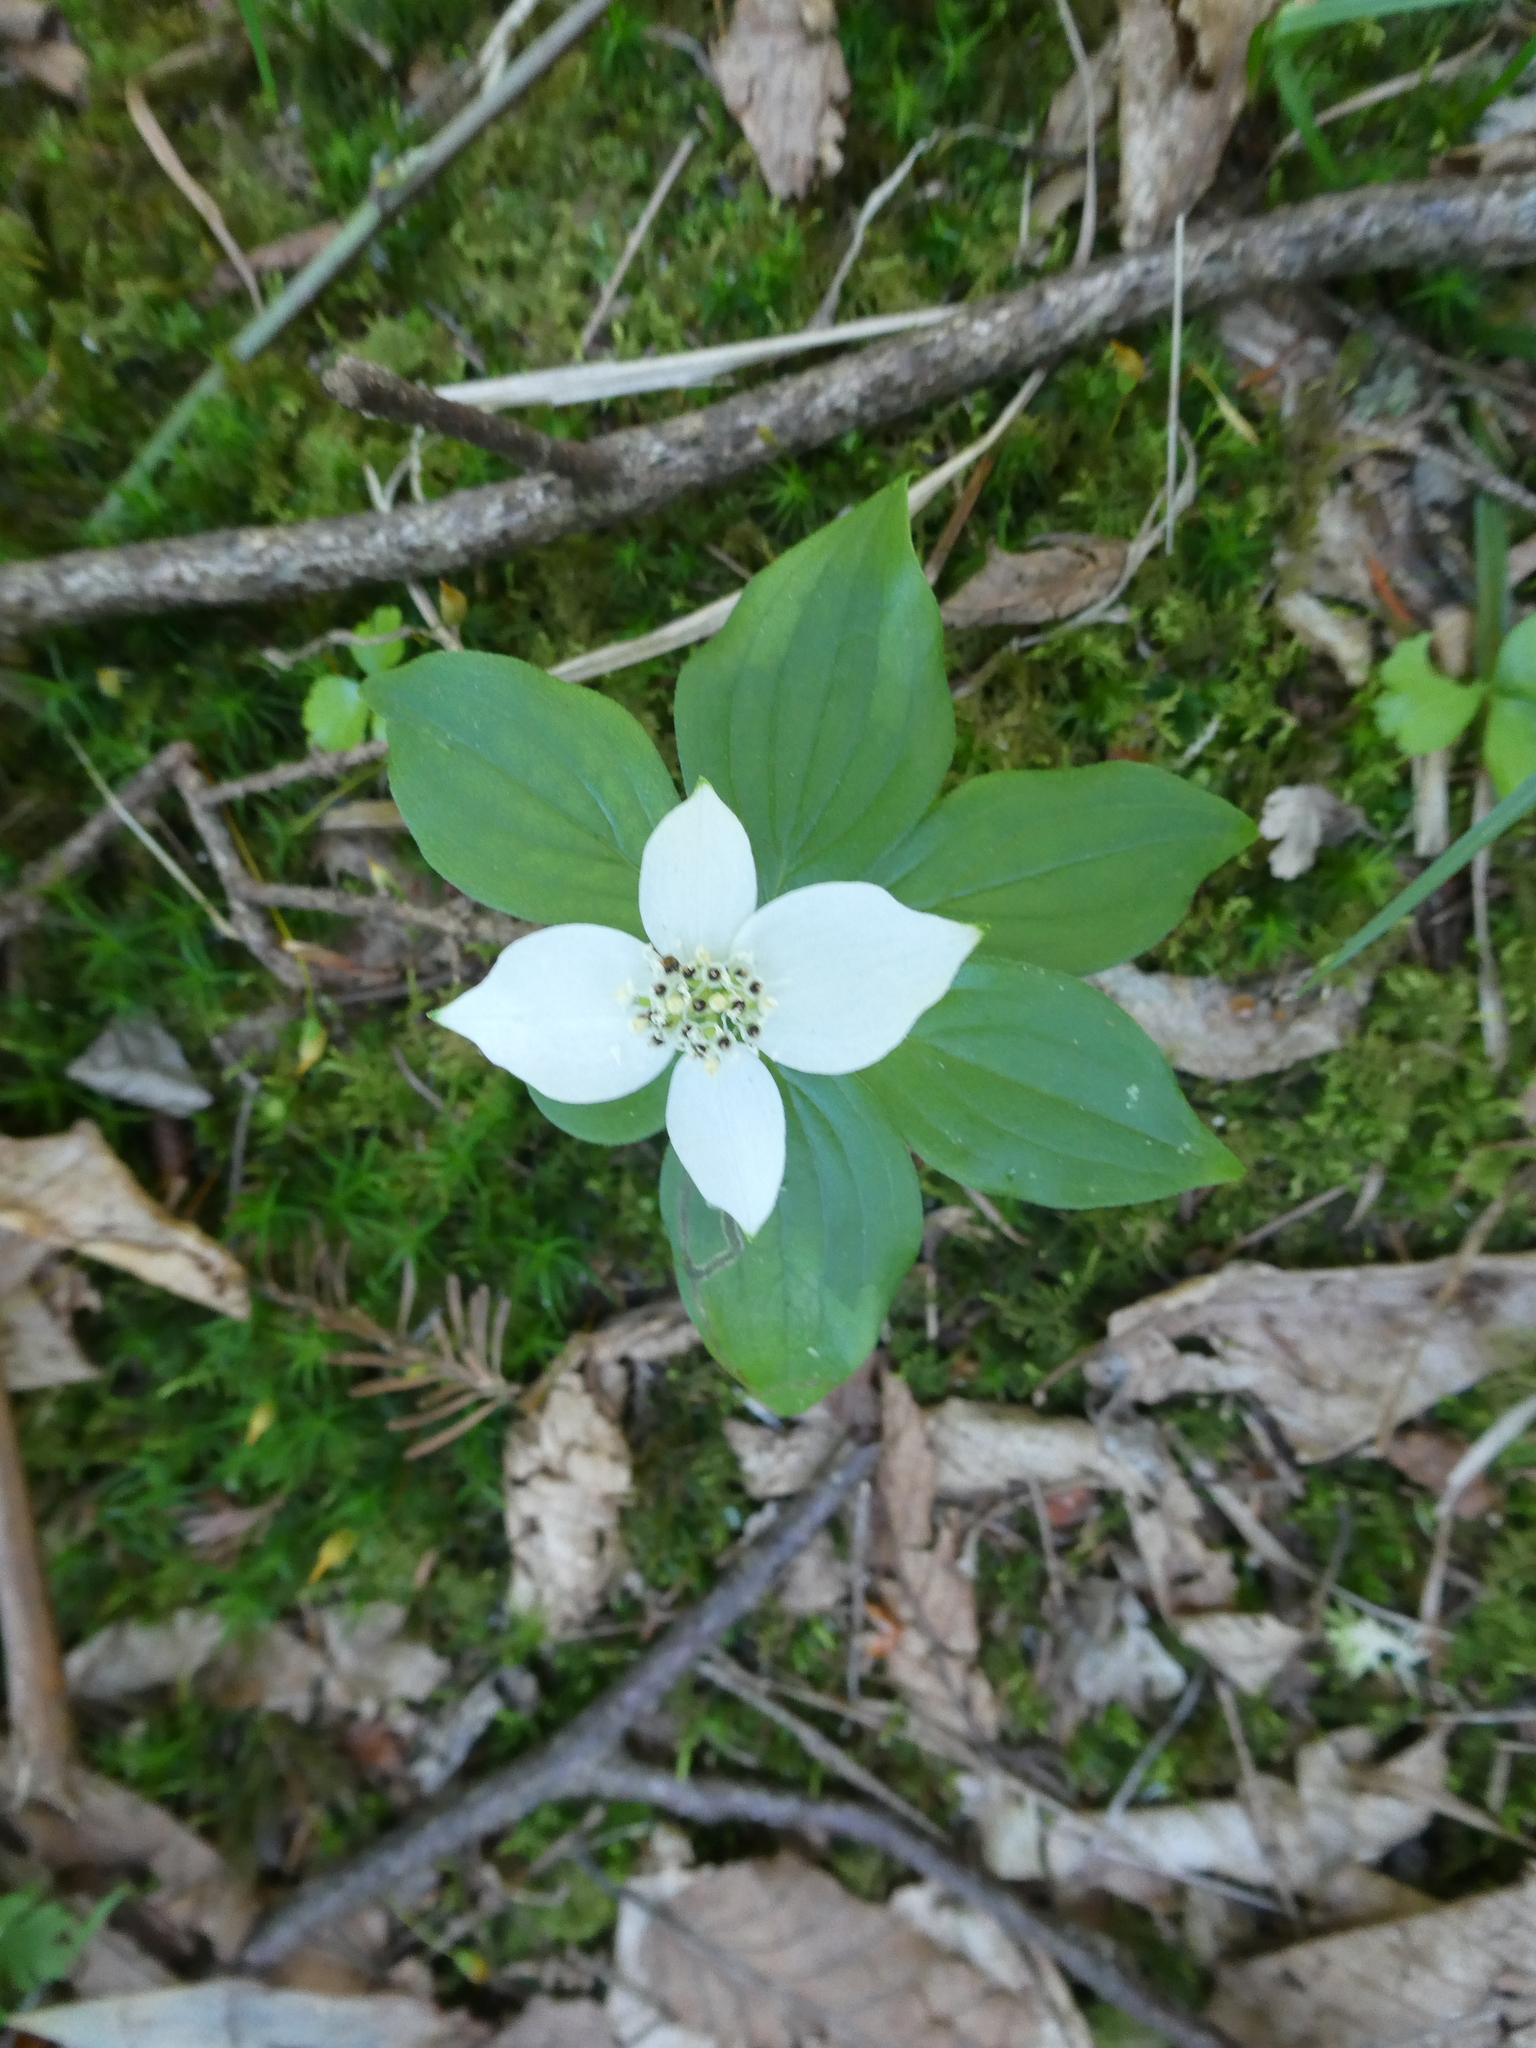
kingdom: Plantae
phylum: Tracheophyta
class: Magnoliopsida
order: Cornales
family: Cornaceae
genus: Cornus
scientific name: Cornus canadensis
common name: Creeping dogwood
